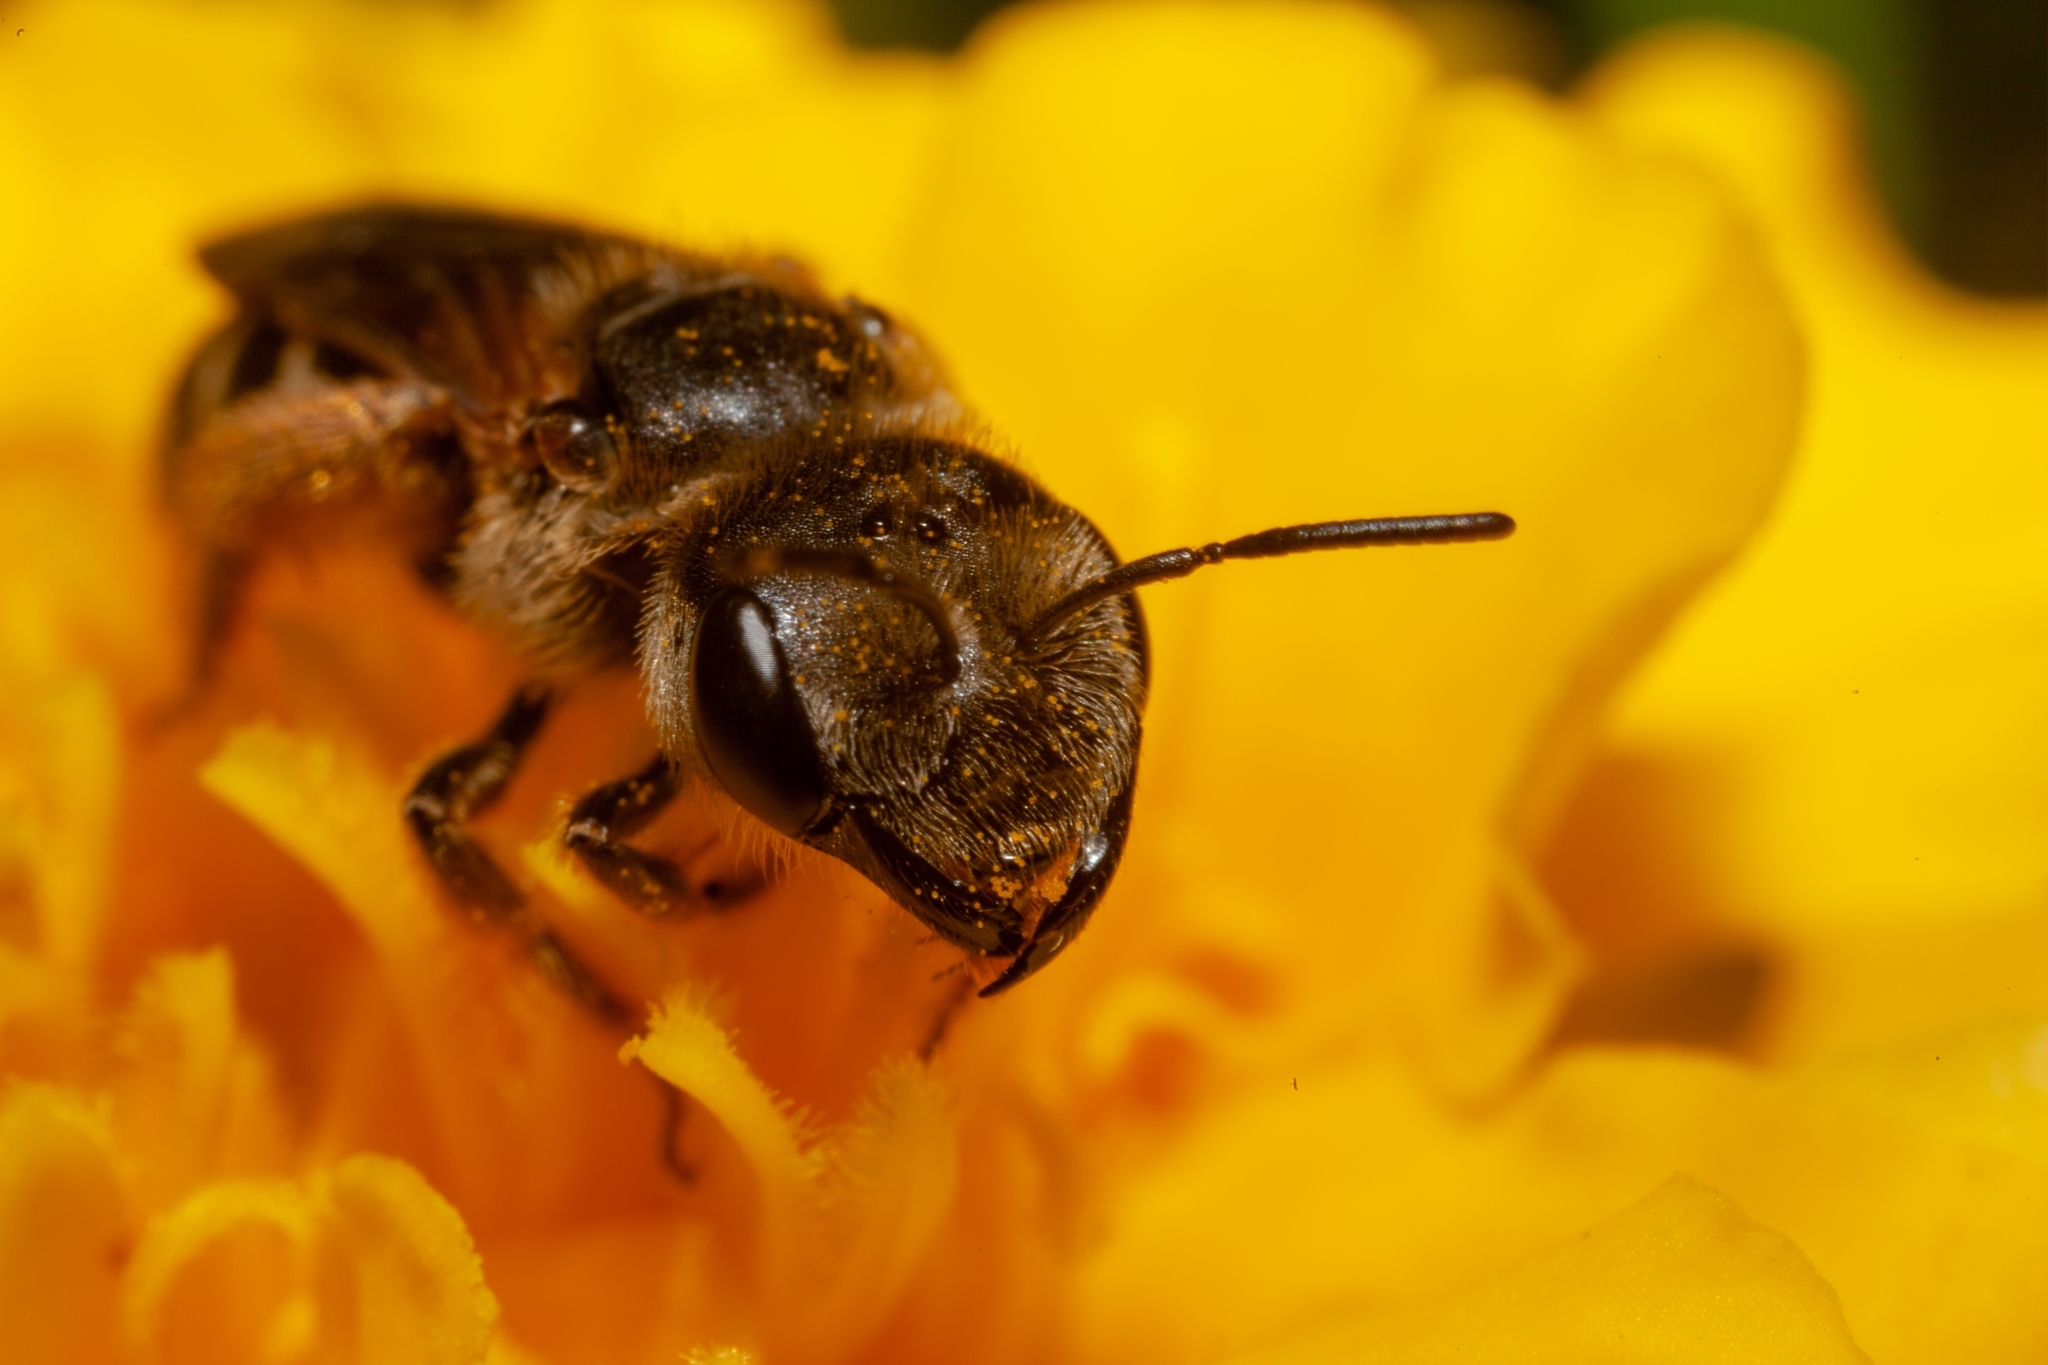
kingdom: Animalia
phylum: Arthropoda
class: Insecta
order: Hymenoptera
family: Halictidae
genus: Halictus
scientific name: Halictus poeyi
